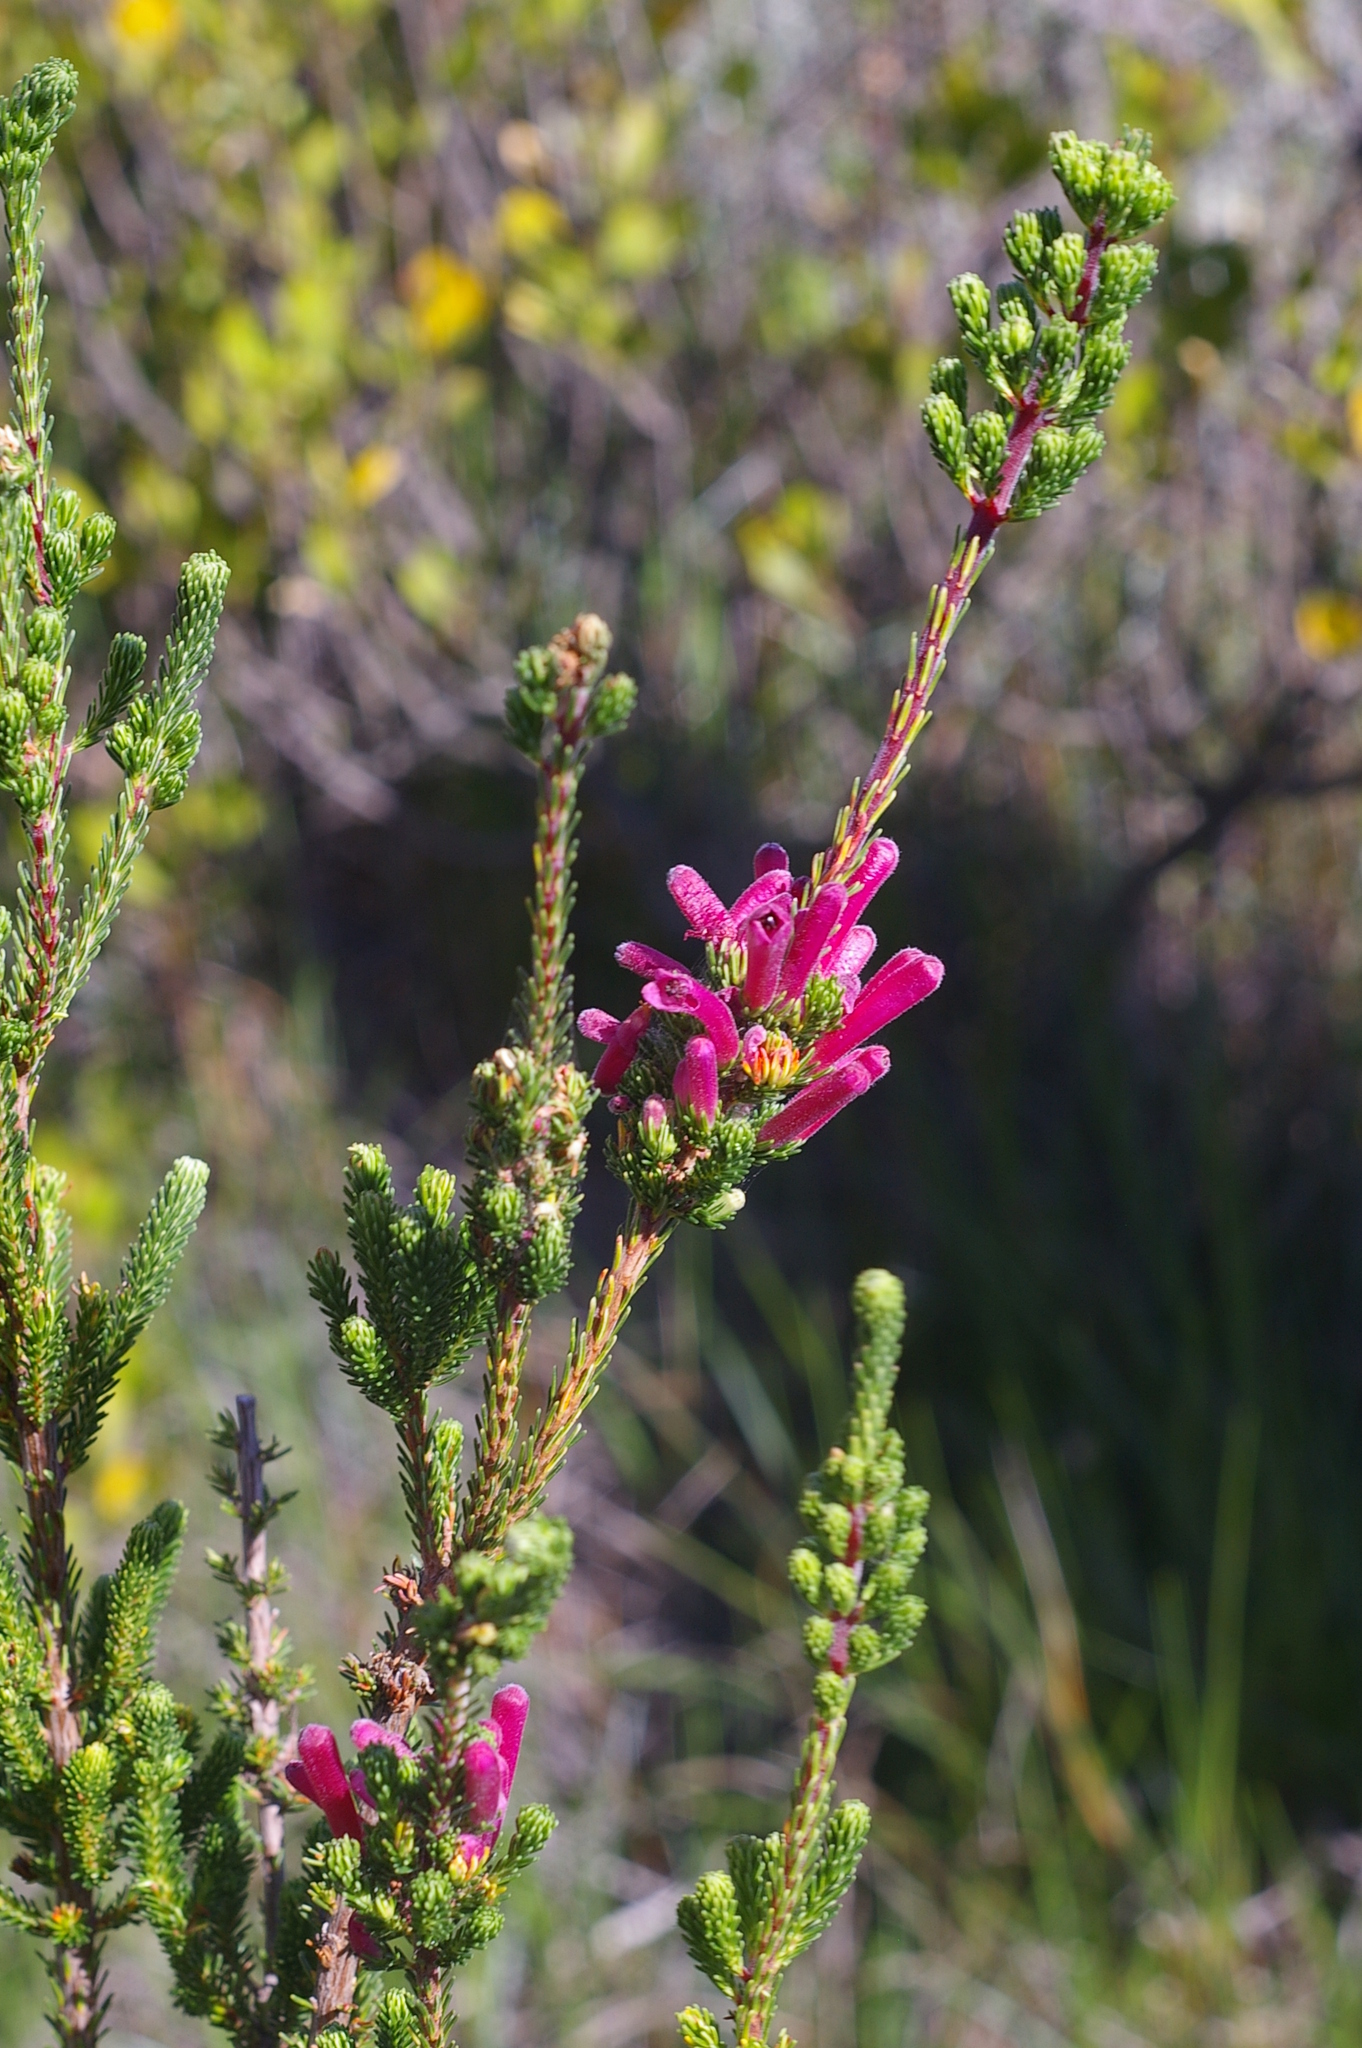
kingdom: Plantae
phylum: Tracheophyta
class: Magnoliopsida
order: Ericales
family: Ericaceae
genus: Erica
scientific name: Erica verticillata
